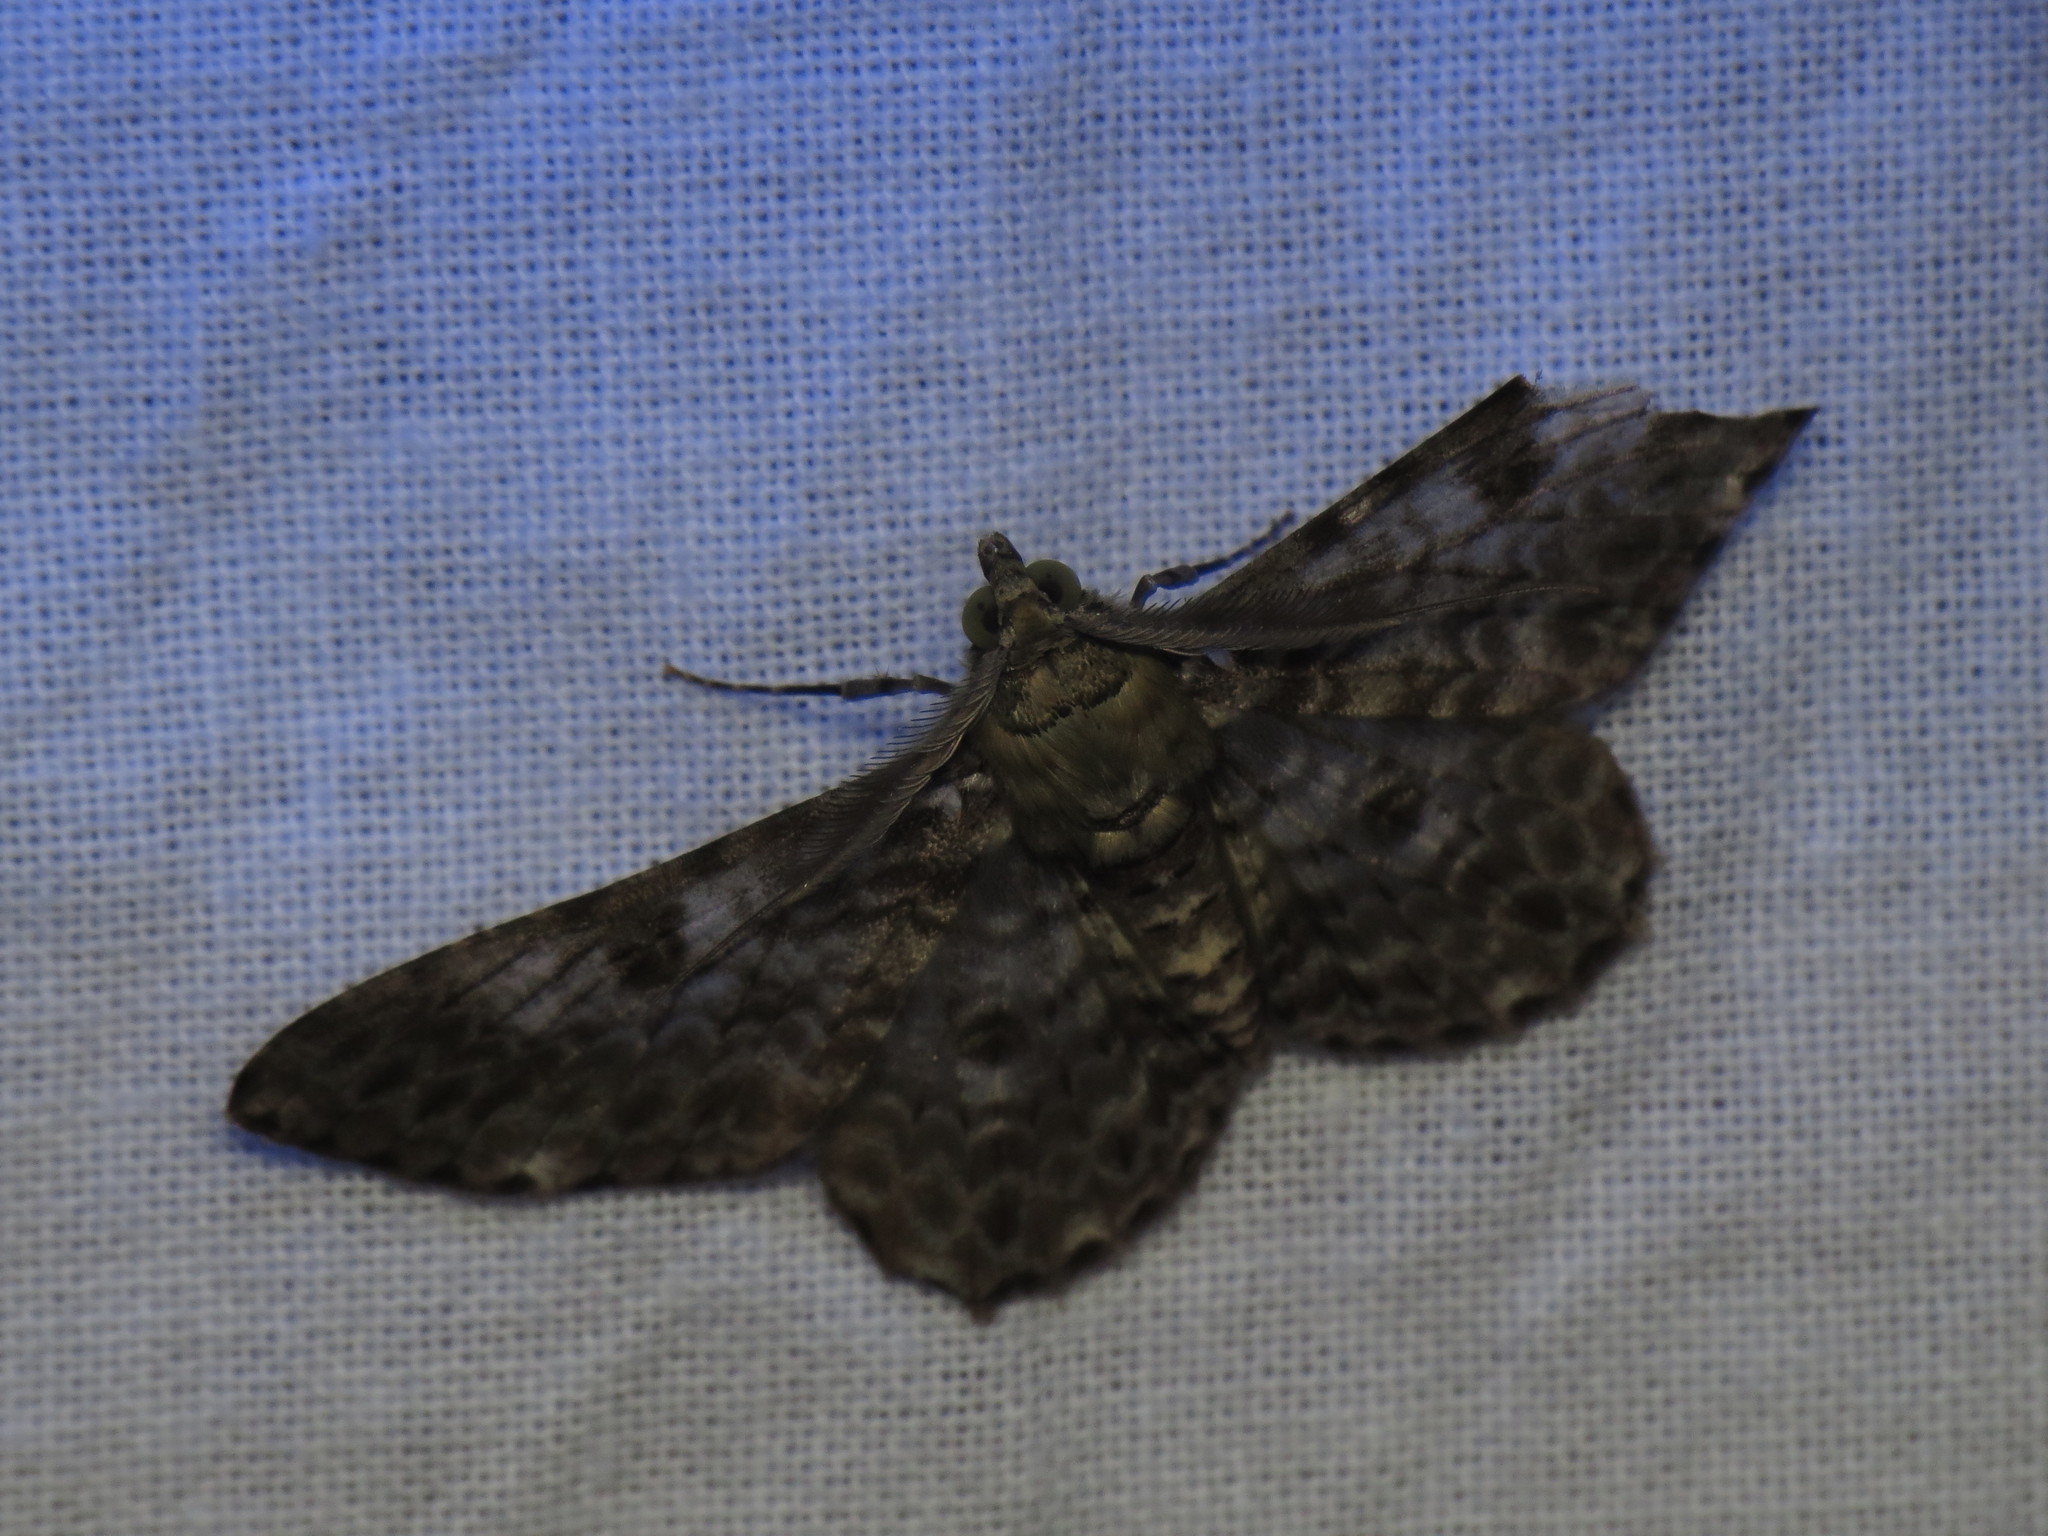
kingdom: Animalia
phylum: Arthropoda
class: Insecta
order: Lepidoptera
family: Geometridae
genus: Cleora
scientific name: Cleora tenebrata
